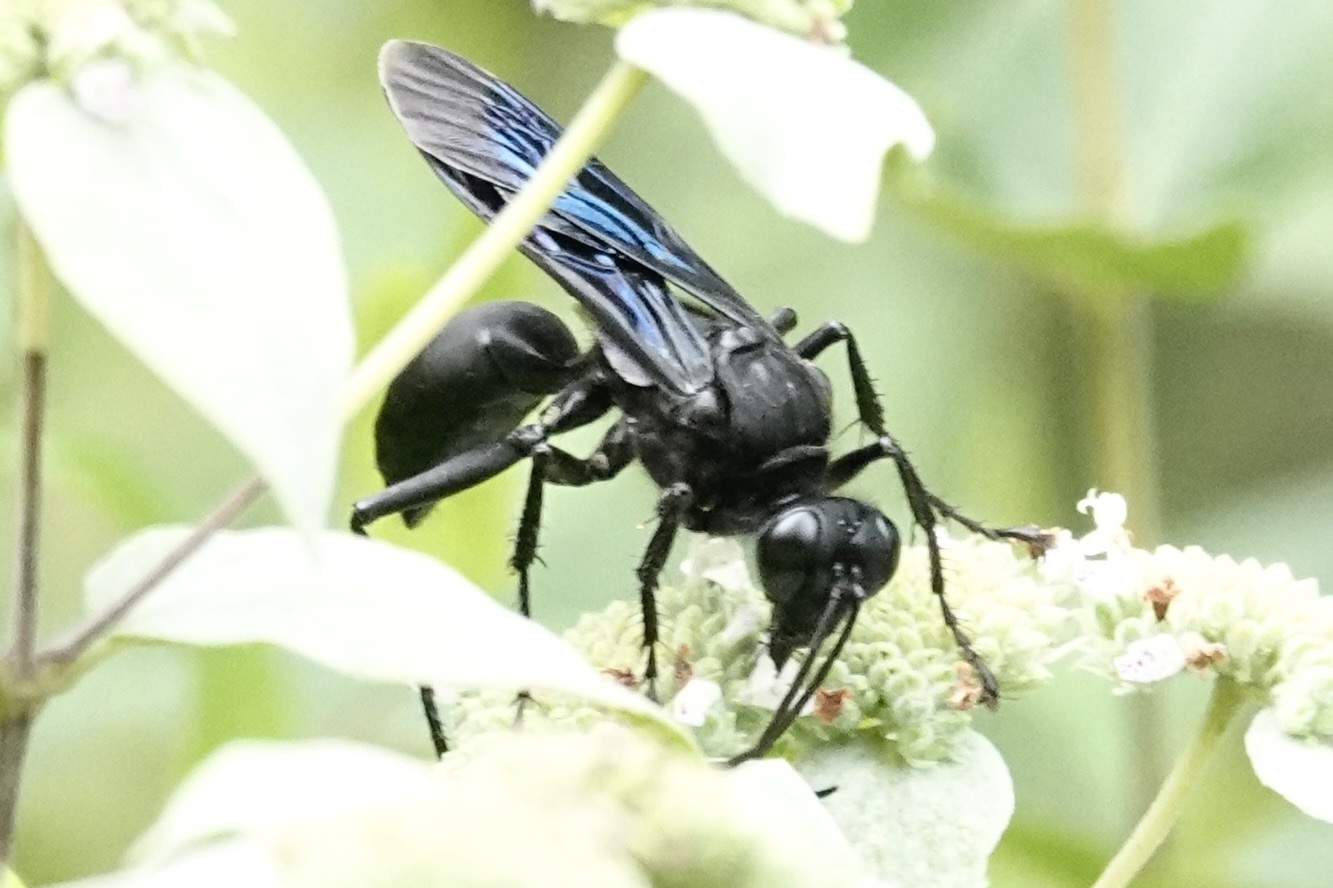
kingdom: Animalia
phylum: Arthropoda
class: Insecta
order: Hymenoptera
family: Sphecidae
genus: Sphex
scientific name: Sphex pensylvanicus
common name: Great black digger wasp
